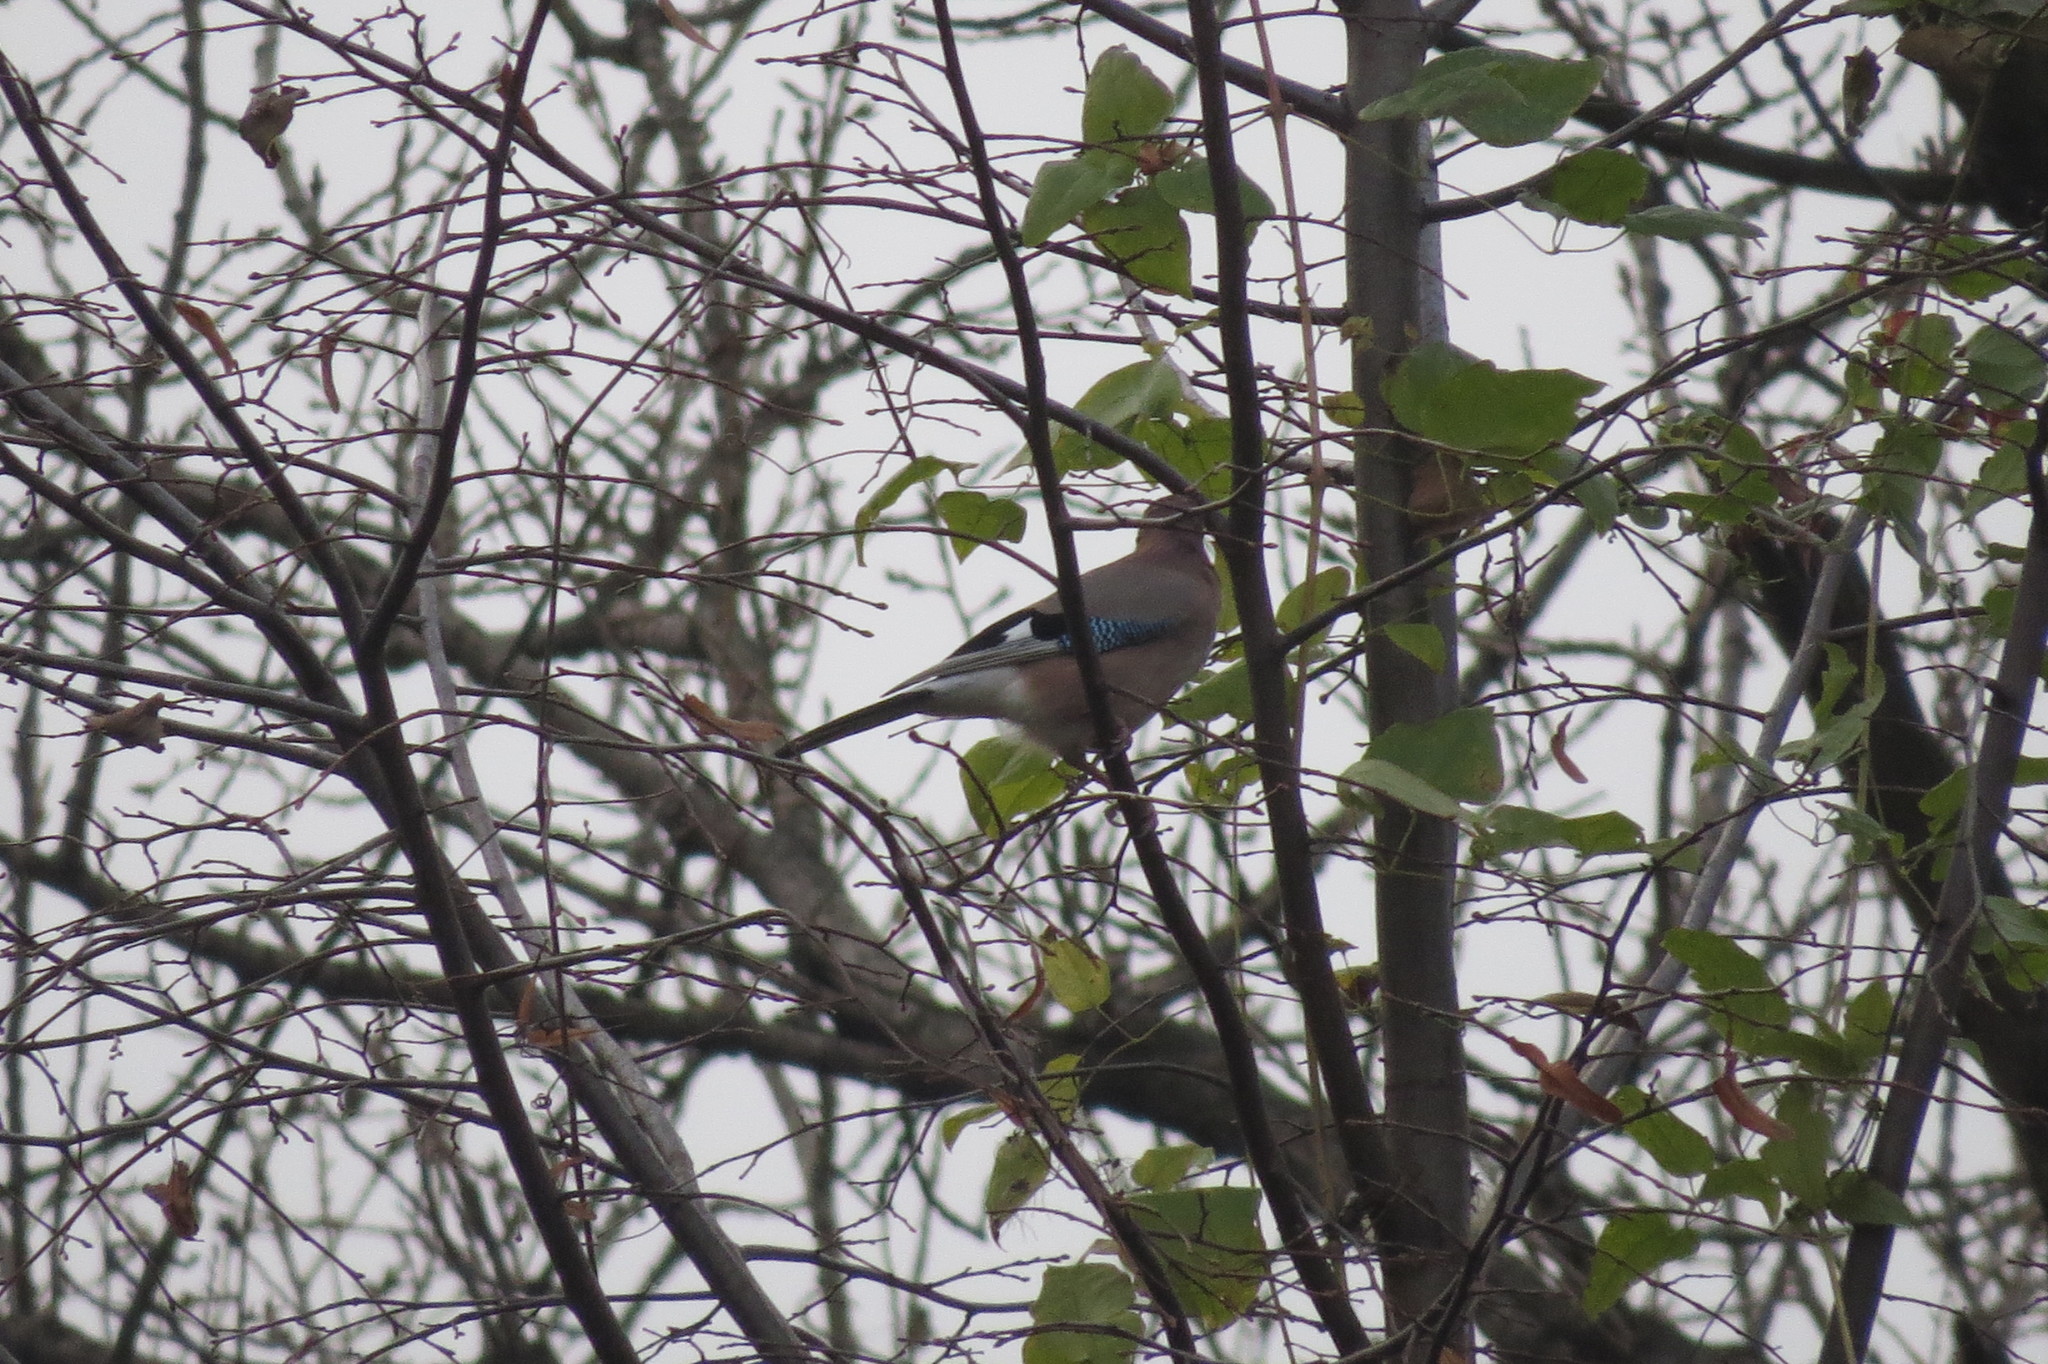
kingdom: Animalia
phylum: Chordata
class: Aves
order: Passeriformes
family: Corvidae
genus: Garrulus
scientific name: Garrulus glandarius
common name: Eurasian jay
